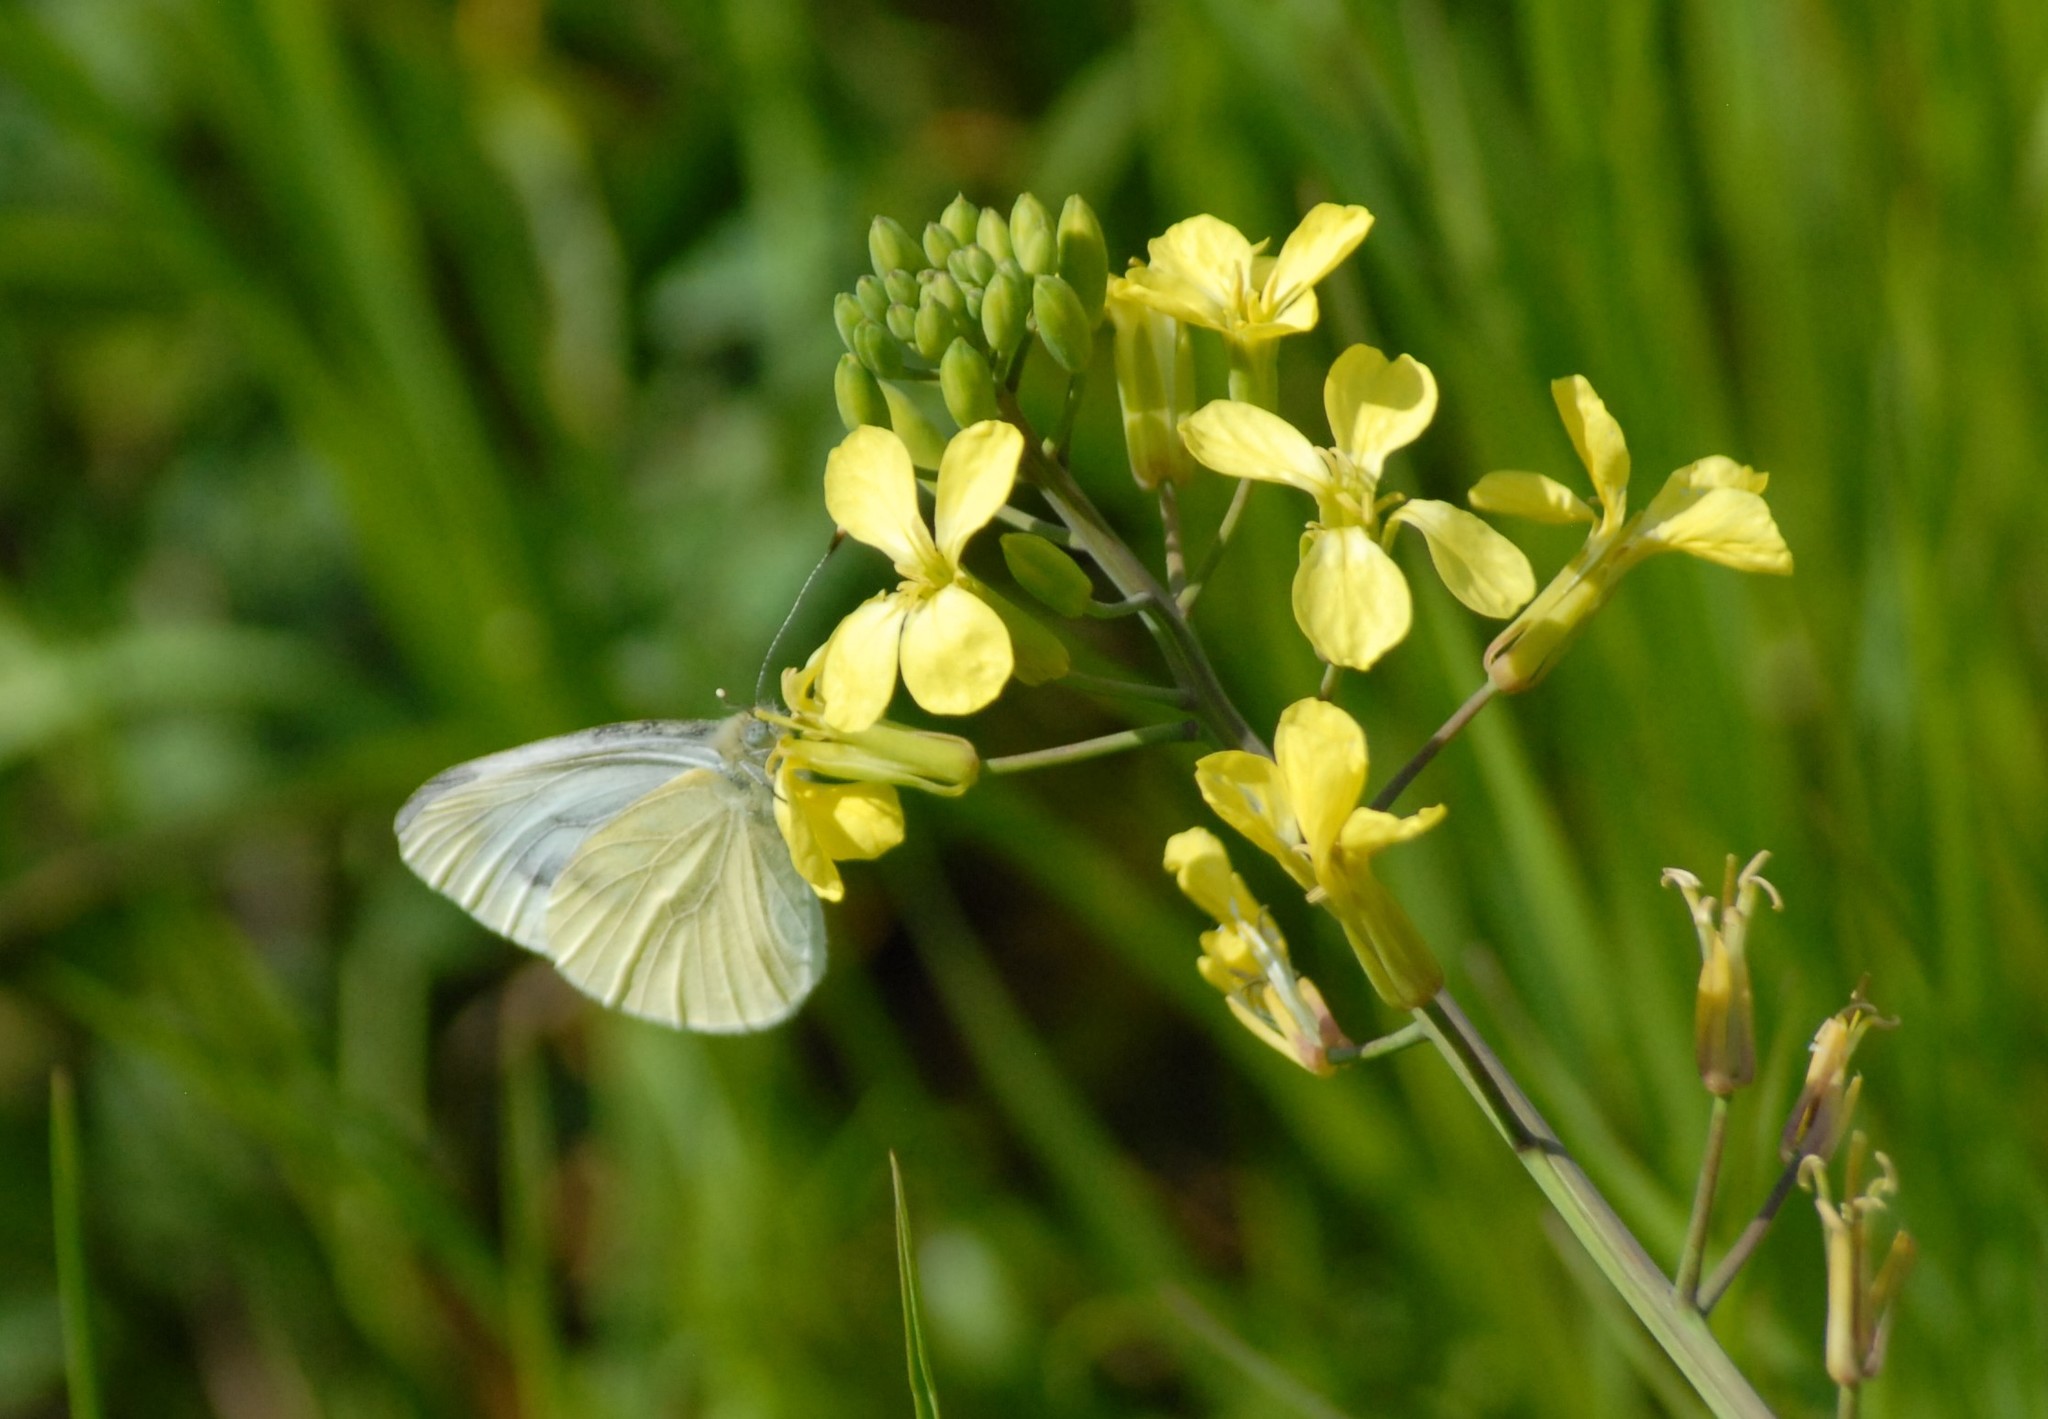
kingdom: Animalia
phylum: Arthropoda
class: Insecta
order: Lepidoptera
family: Pieridae
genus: Pieris
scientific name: Pieris rapae
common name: Small white
